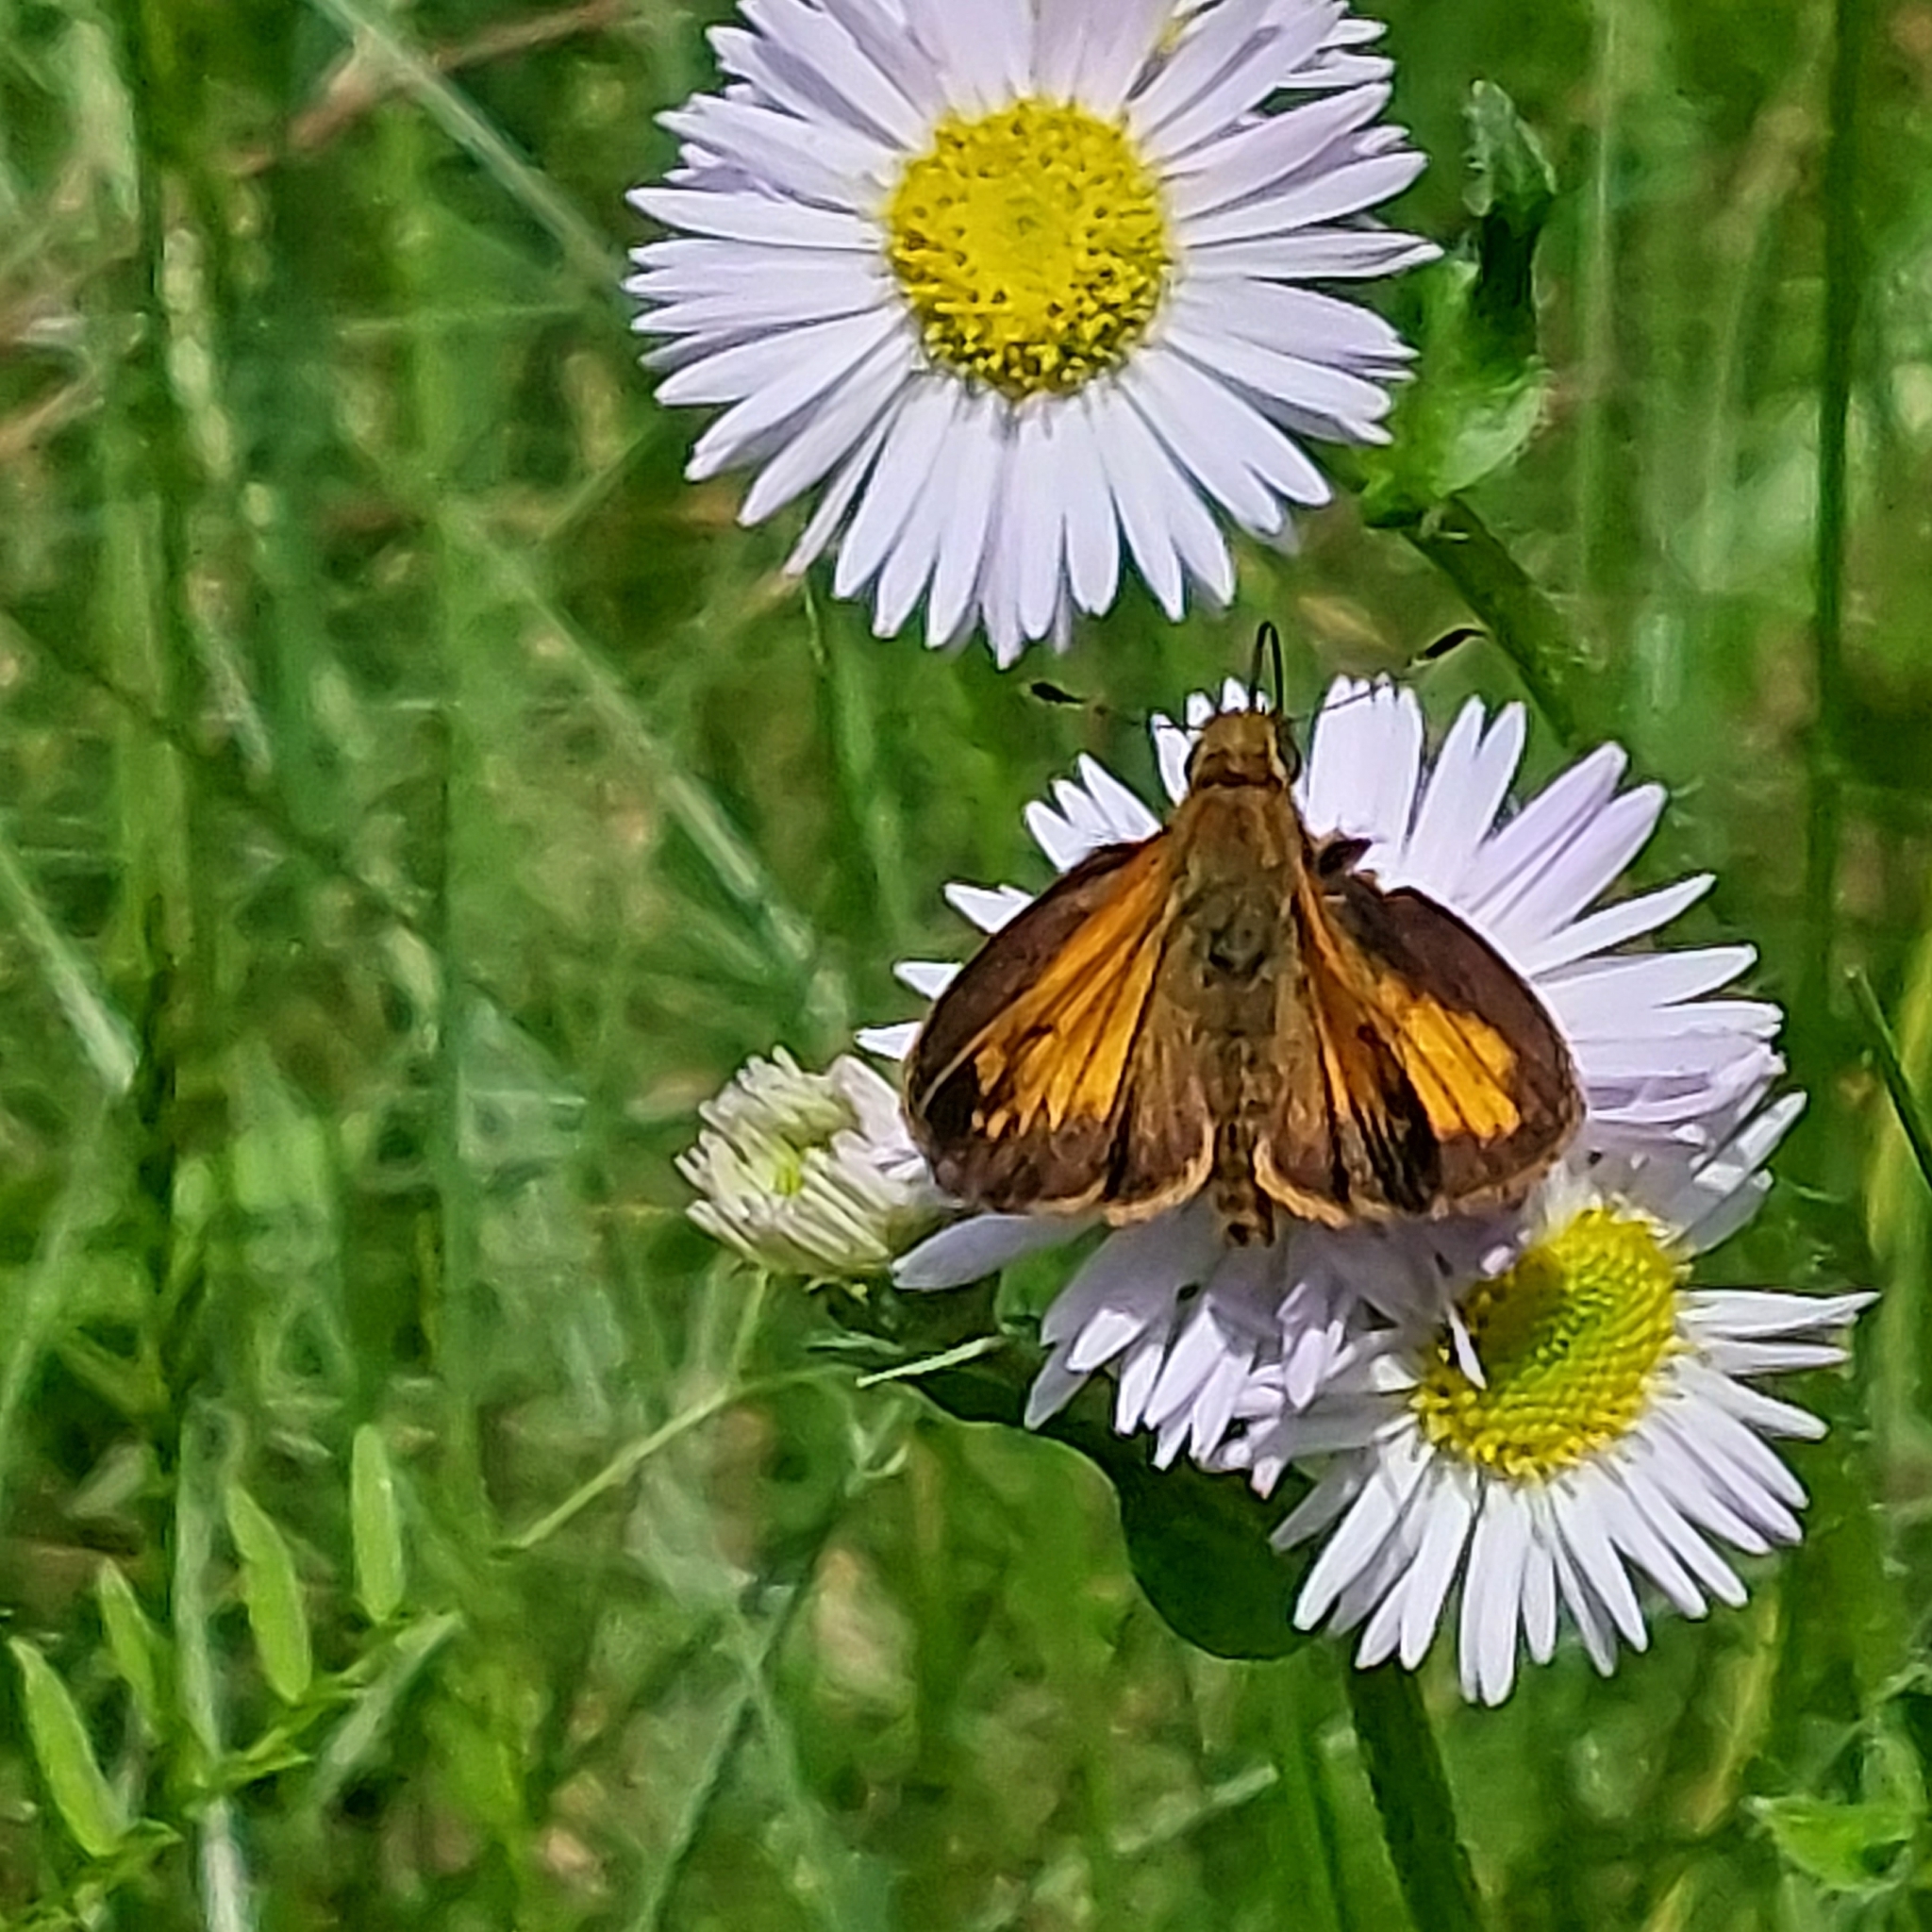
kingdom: Animalia
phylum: Arthropoda
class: Insecta
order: Lepidoptera
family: Hesperiidae
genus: Lon
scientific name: Lon hobomok
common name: Hobomok skipper
